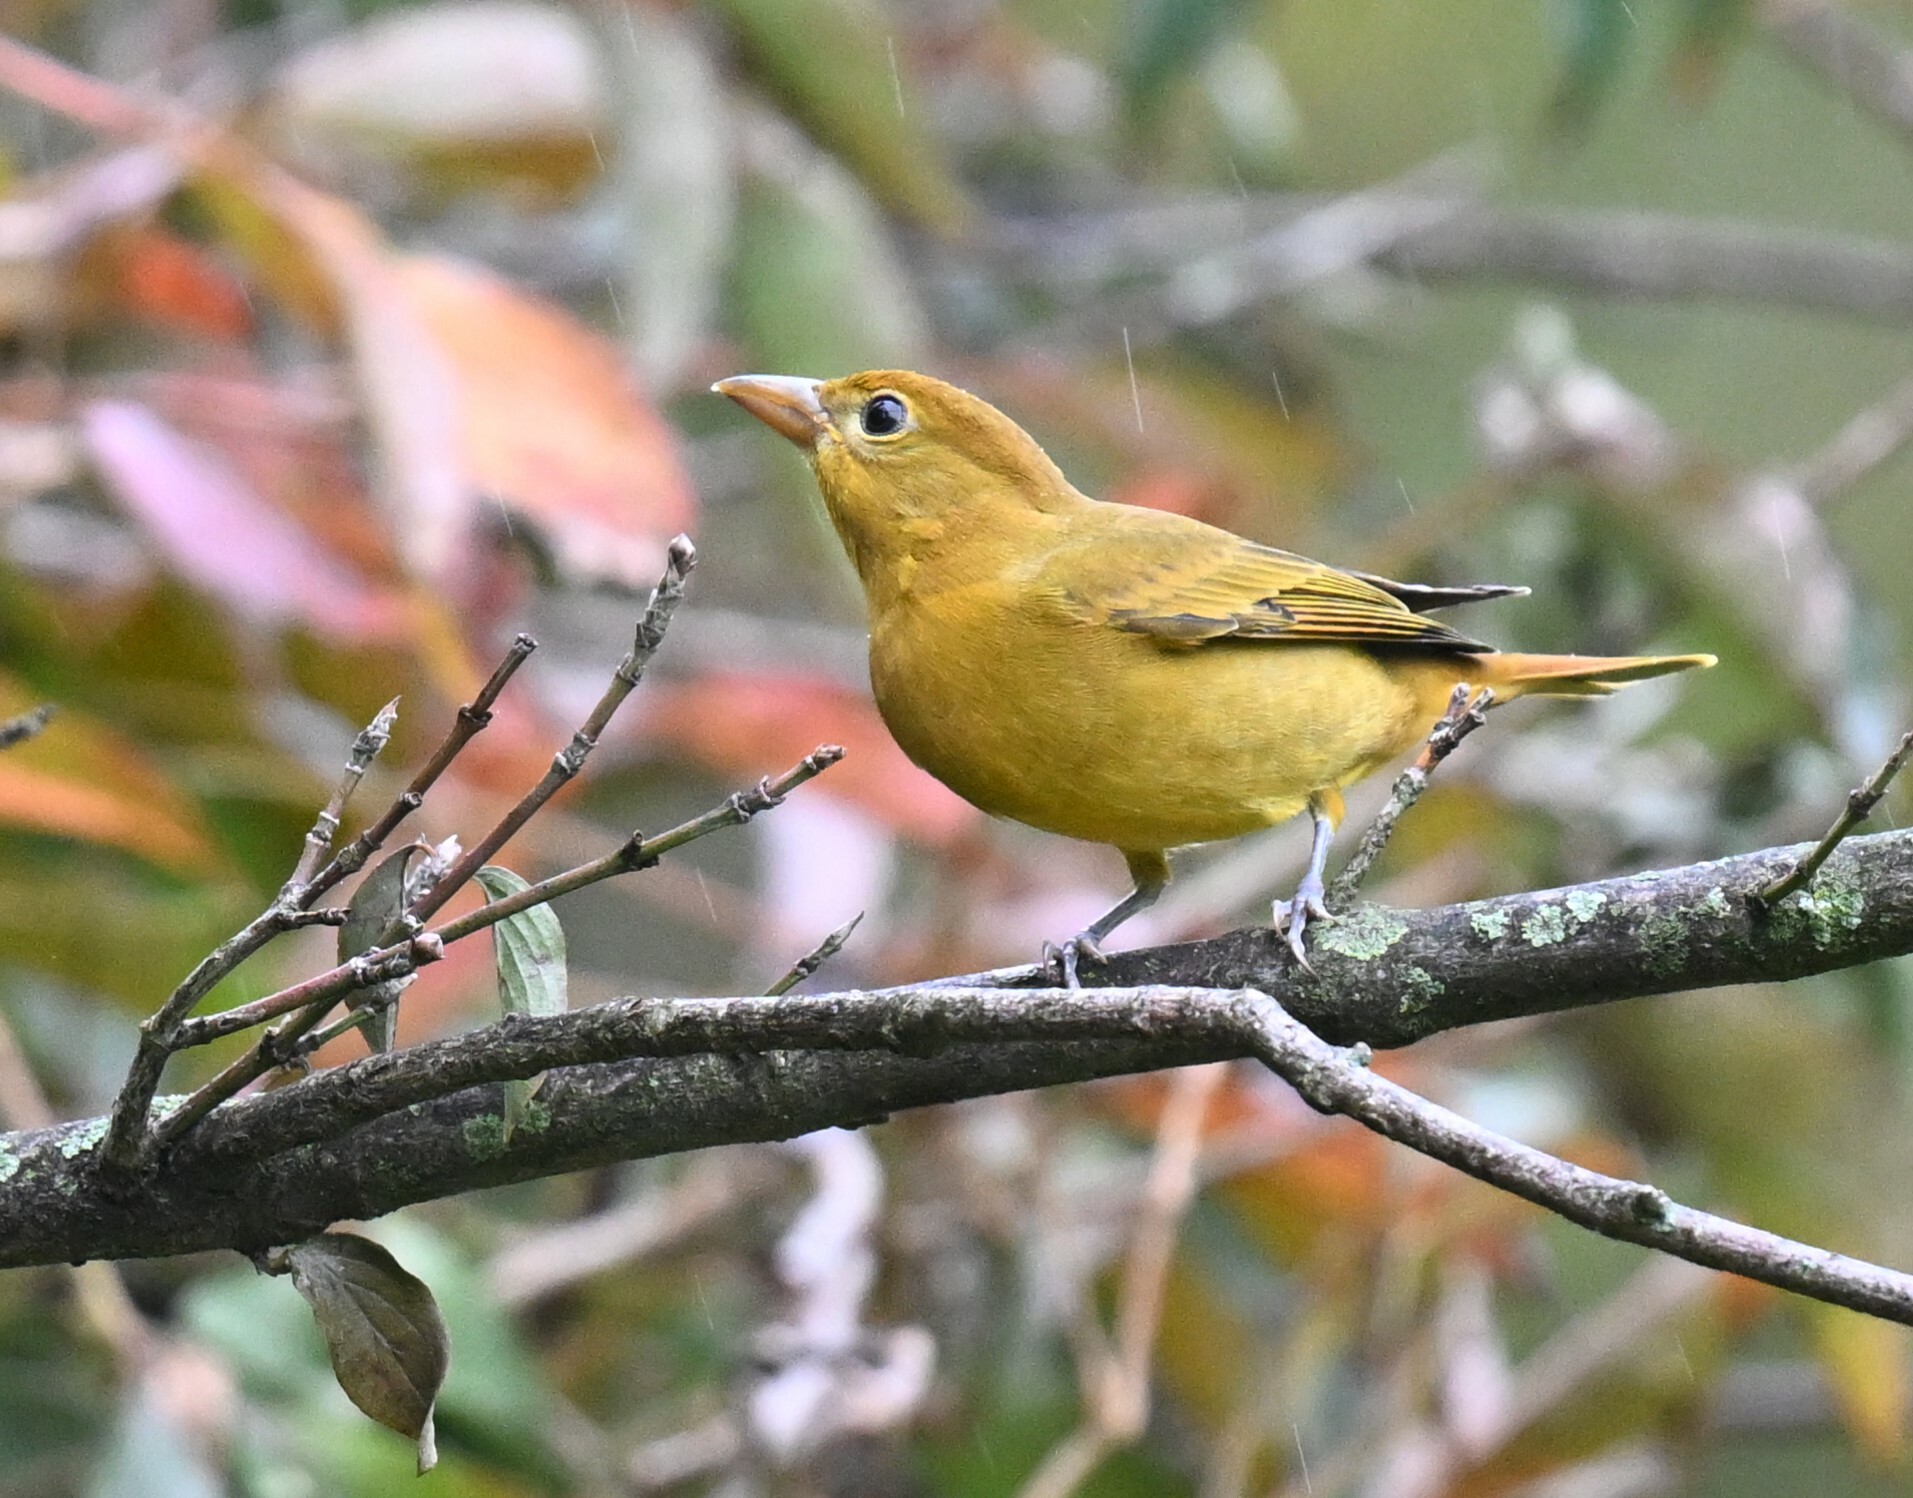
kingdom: Animalia
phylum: Chordata
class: Aves
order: Passeriformes
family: Cardinalidae
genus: Piranga
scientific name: Piranga rubra
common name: Summer tanager
